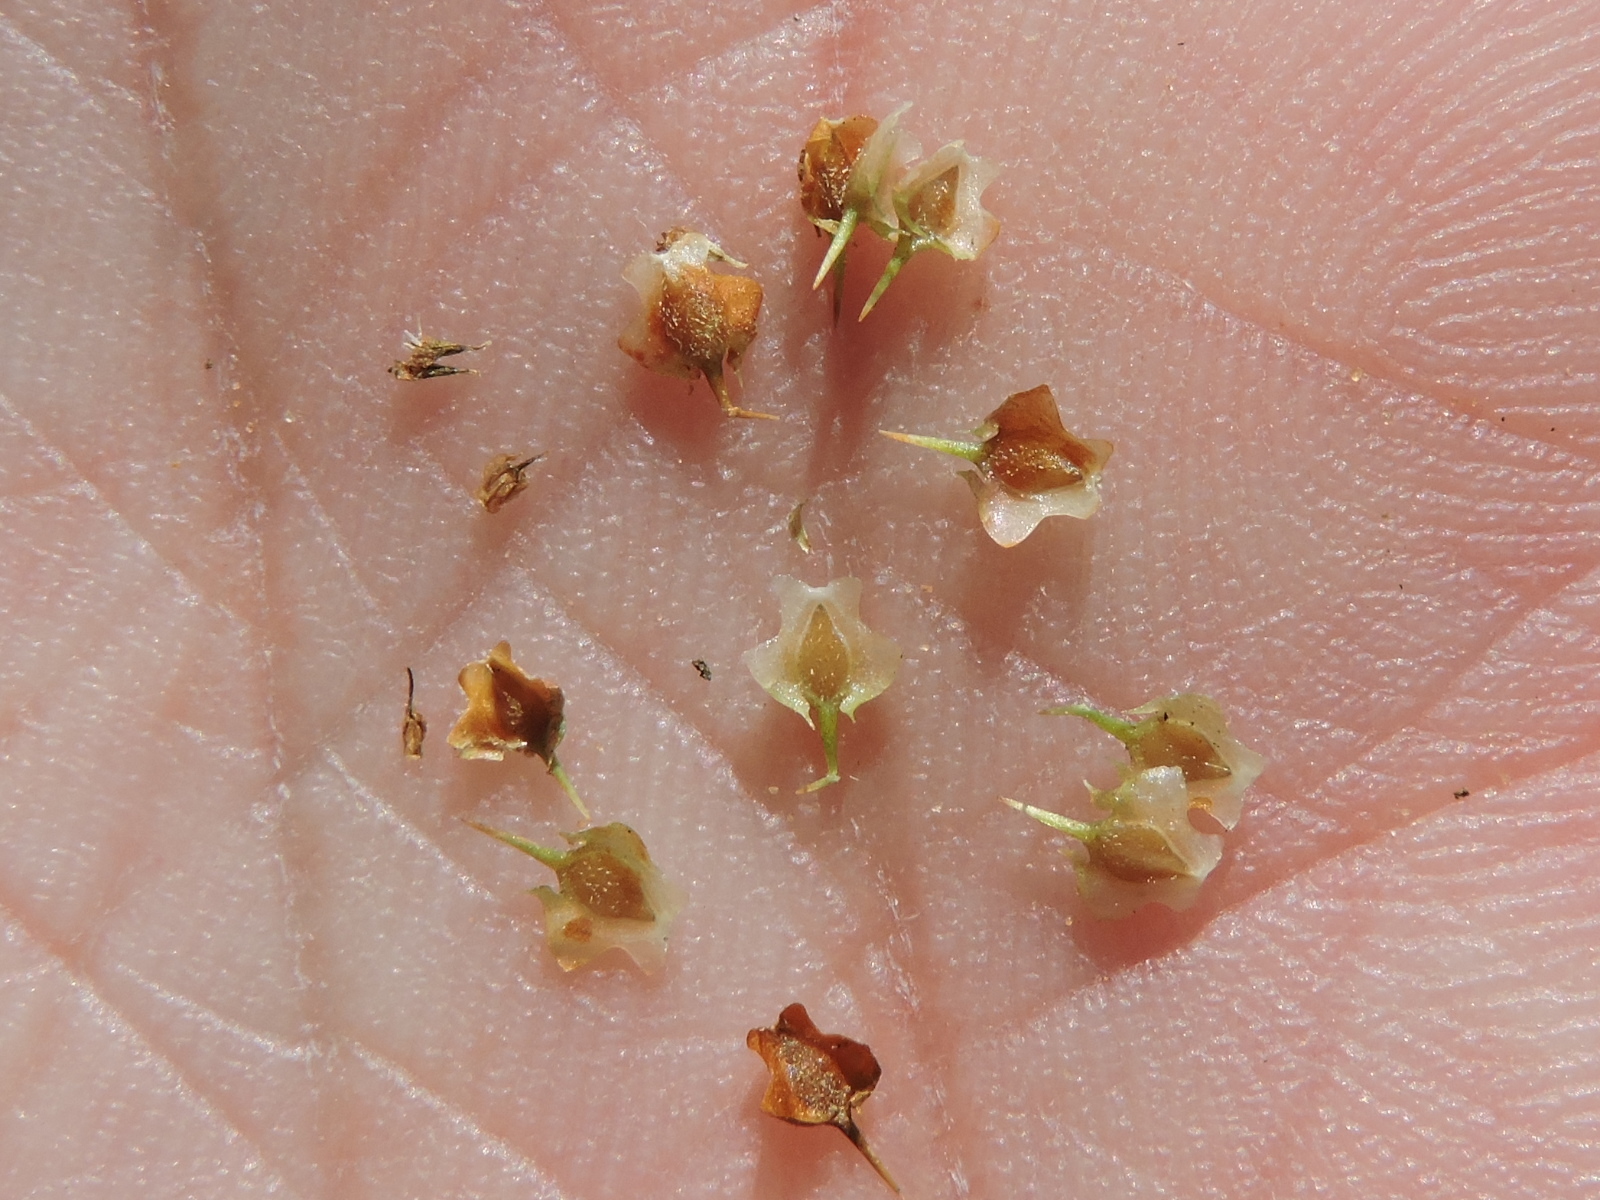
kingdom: Plantae
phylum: Tracheophyta
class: Magnoliopsida
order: Asterales
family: Asteraceae
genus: Soliva
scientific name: Soliva sessilis
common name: Field burrweed
